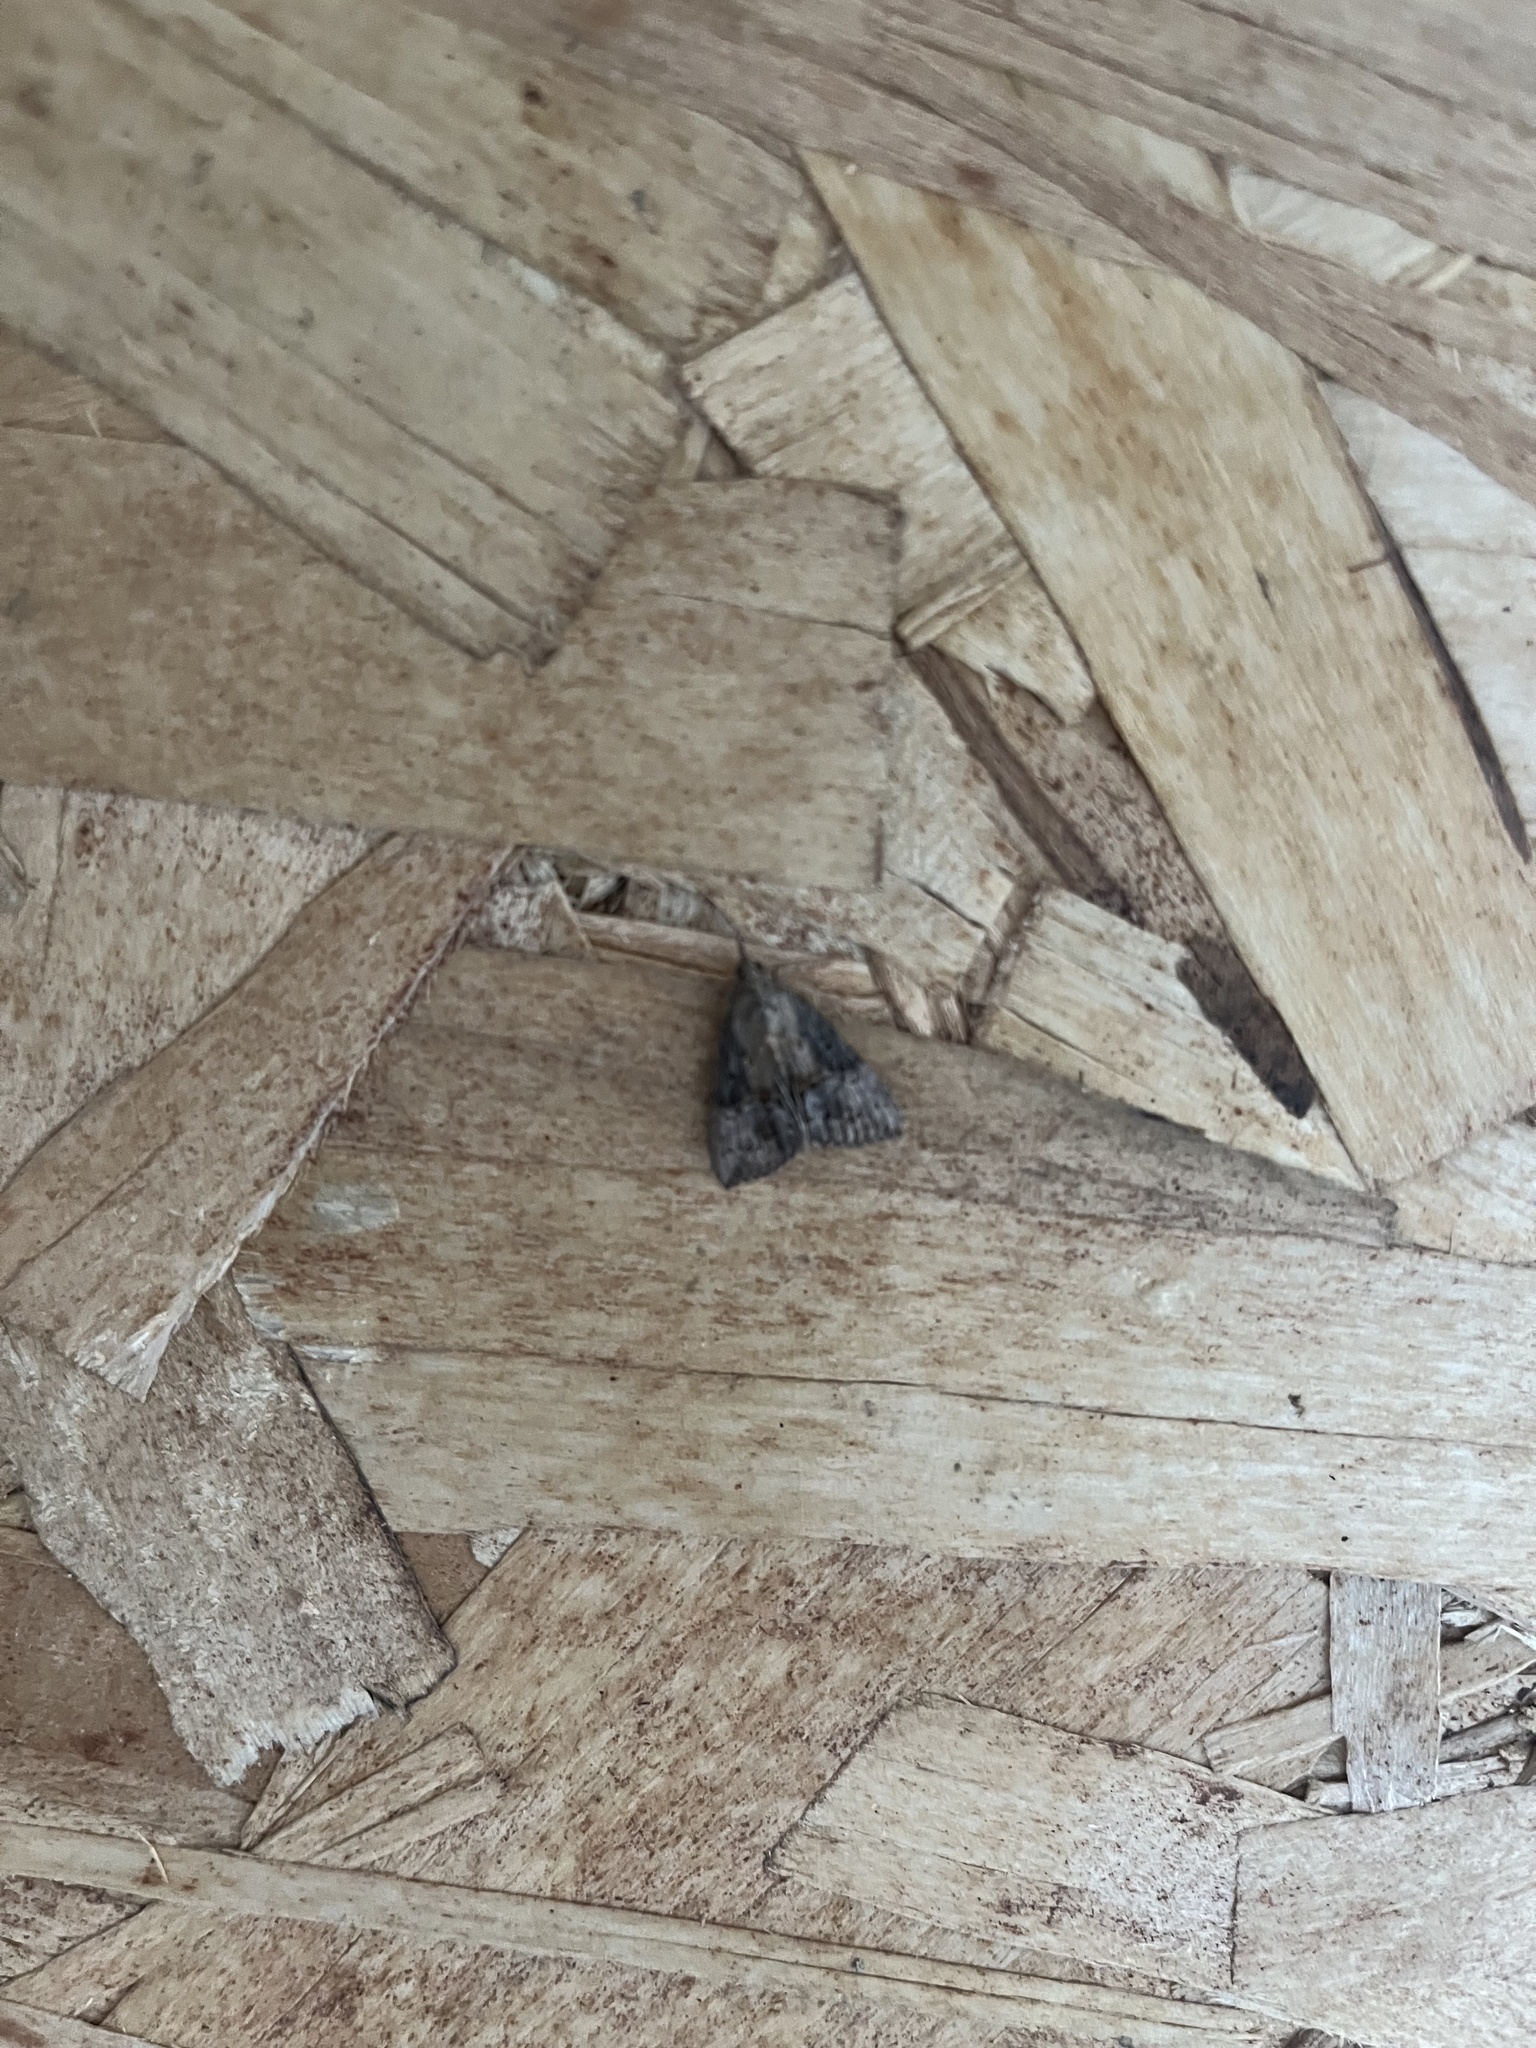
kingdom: Animalia
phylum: Arthropoda
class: Insecta
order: Lepidoptera
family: Erebidae
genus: Hypena
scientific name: Hypena scabra
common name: Green cloverworm
